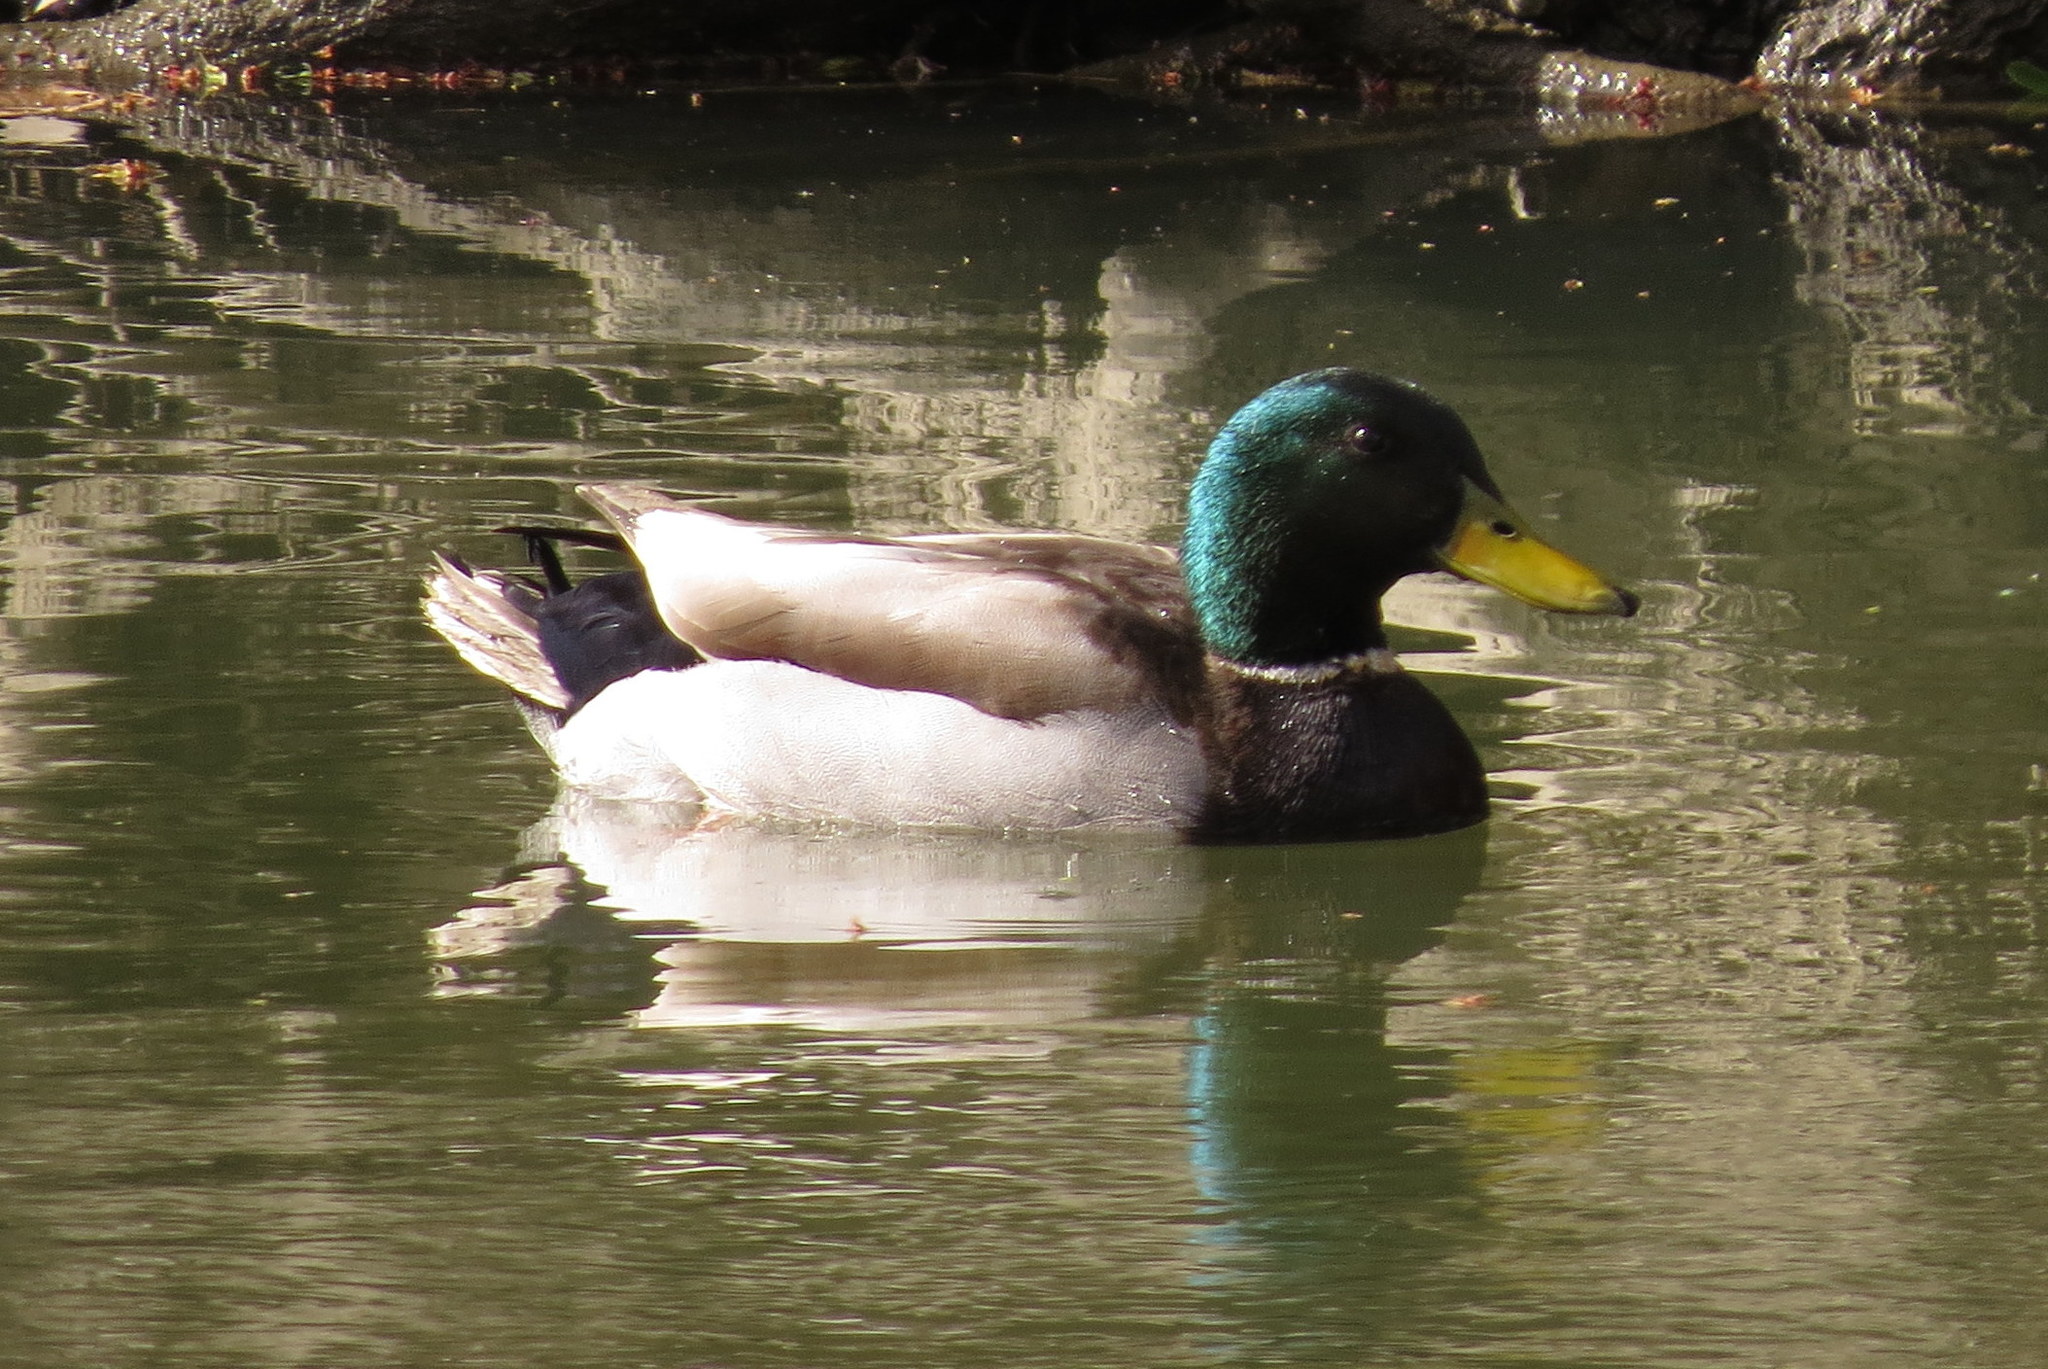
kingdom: Animalia
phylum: Chordata
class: Aves
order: Anseriformes
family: Anatidae
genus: Anas
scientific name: Anas platyrhynchos
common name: Mallard
